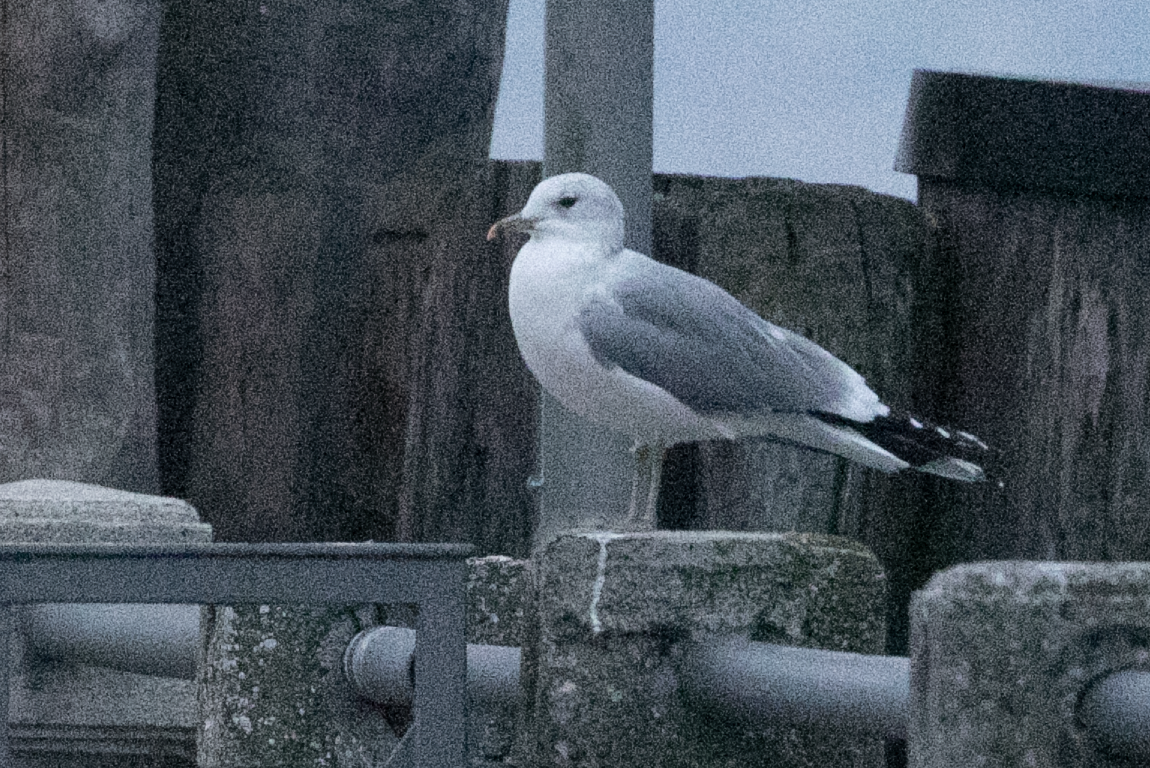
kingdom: Animalia
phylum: Chordata
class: Aves
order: Charadriiformes
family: Laridae
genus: Larus
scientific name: Larus canus
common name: Mew gull
